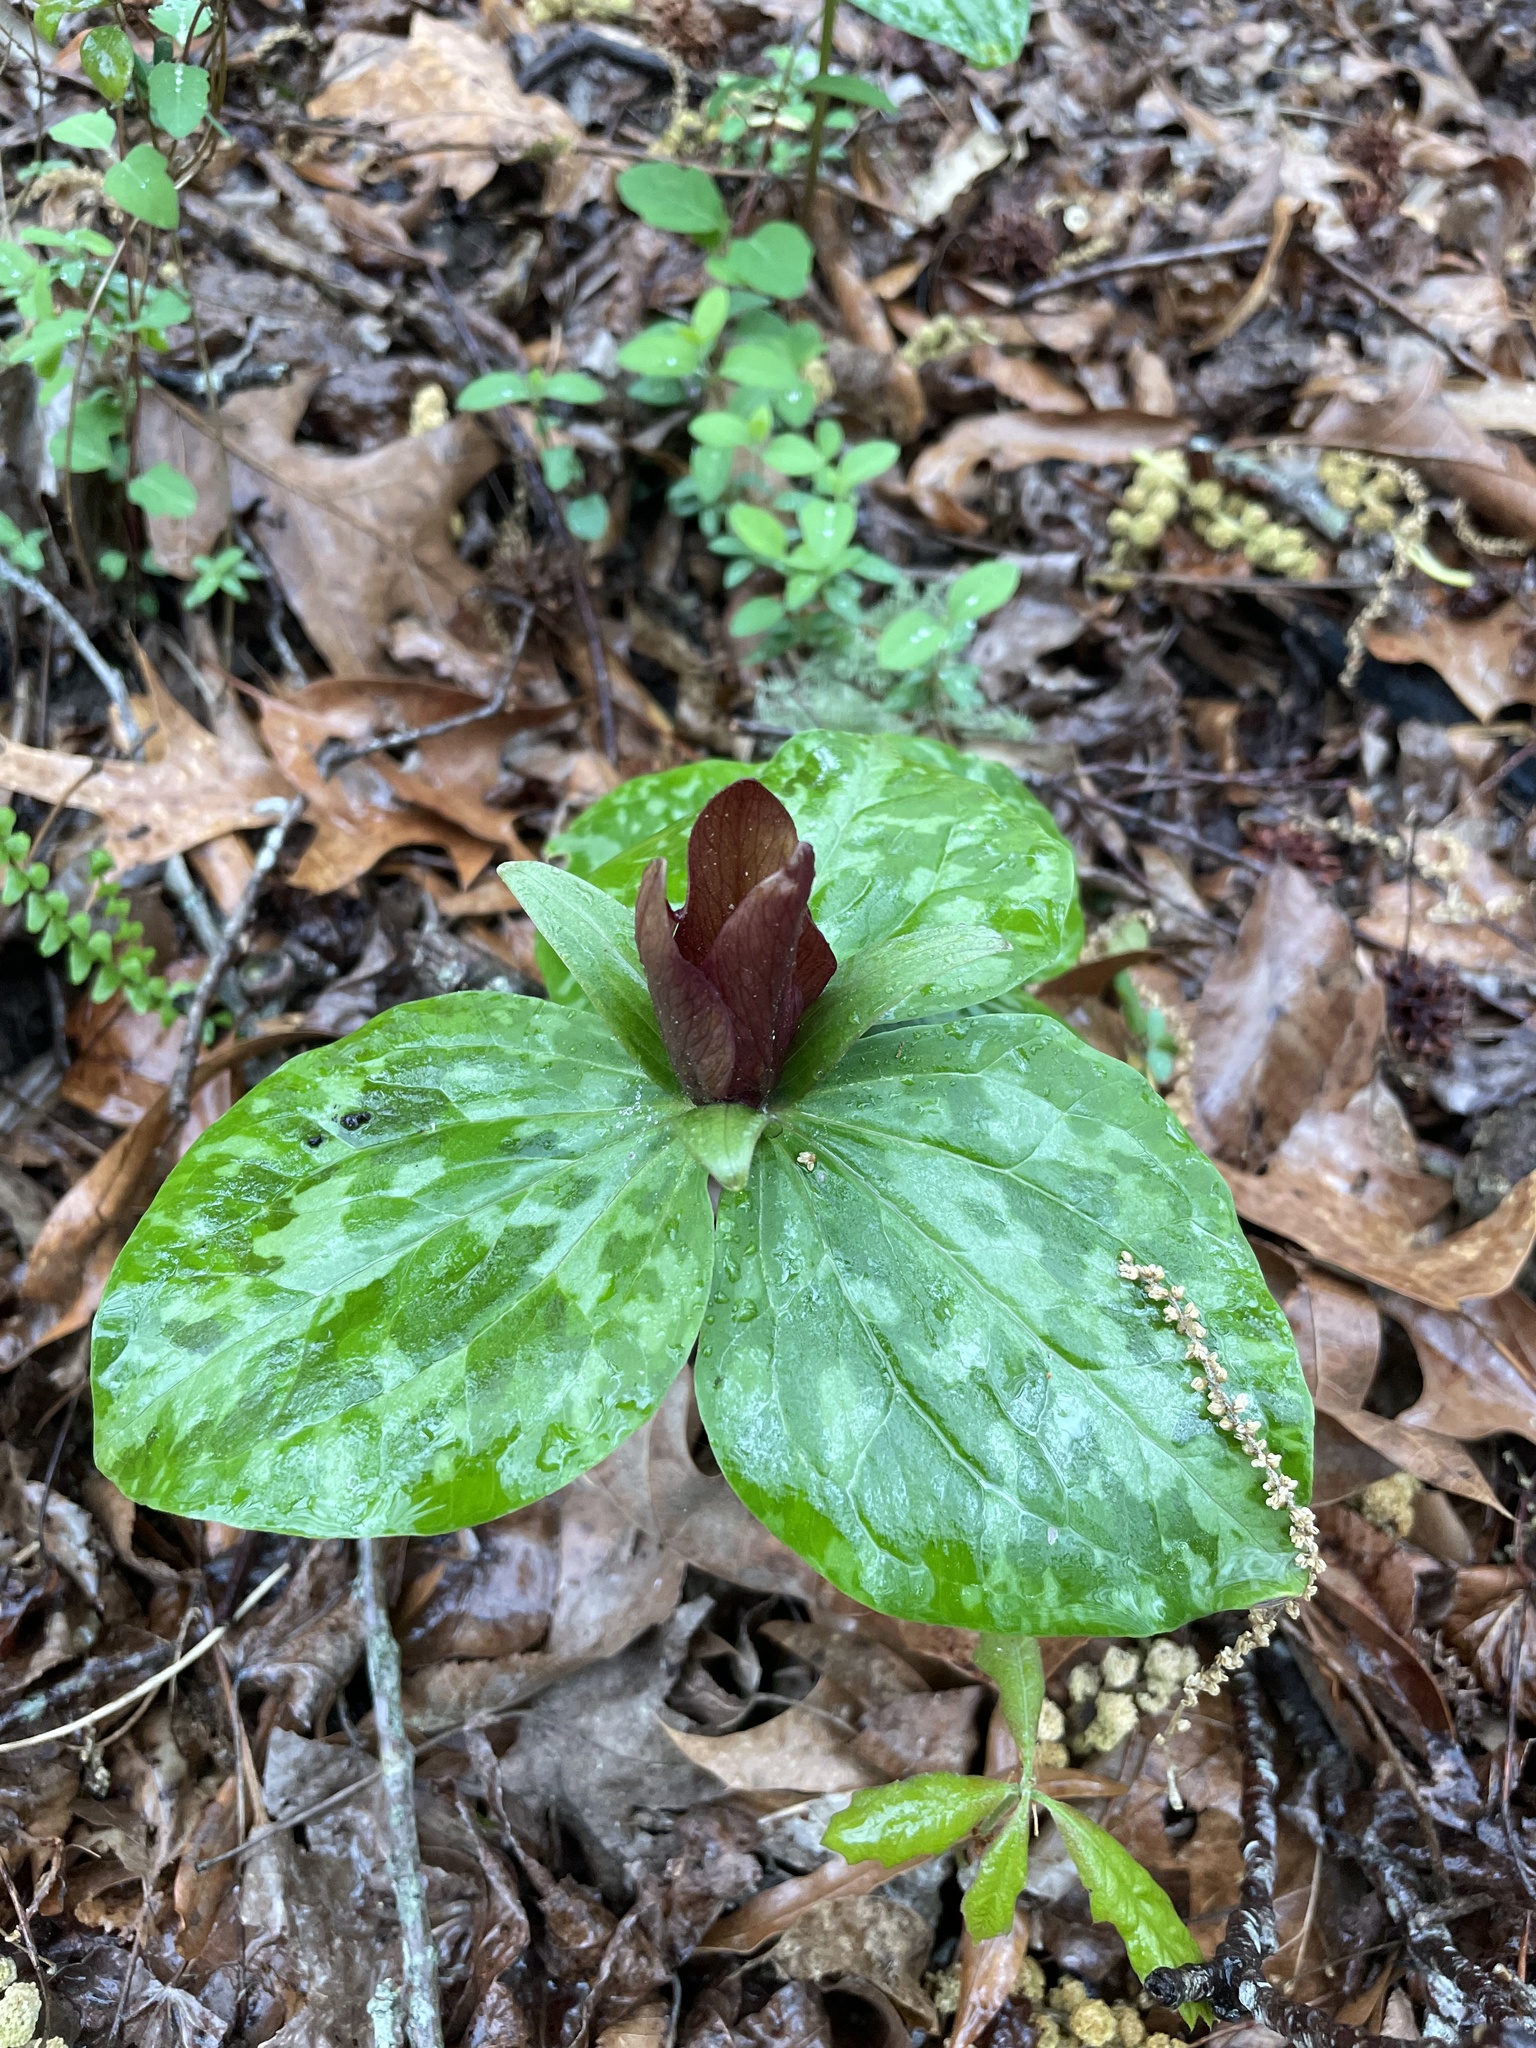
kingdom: Plantae
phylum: Tracheophyta
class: Liliopsida
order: Liliales
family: Melanthiaceae
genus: Trillium
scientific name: Trillium cuneatum
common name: Cuneate trillium
